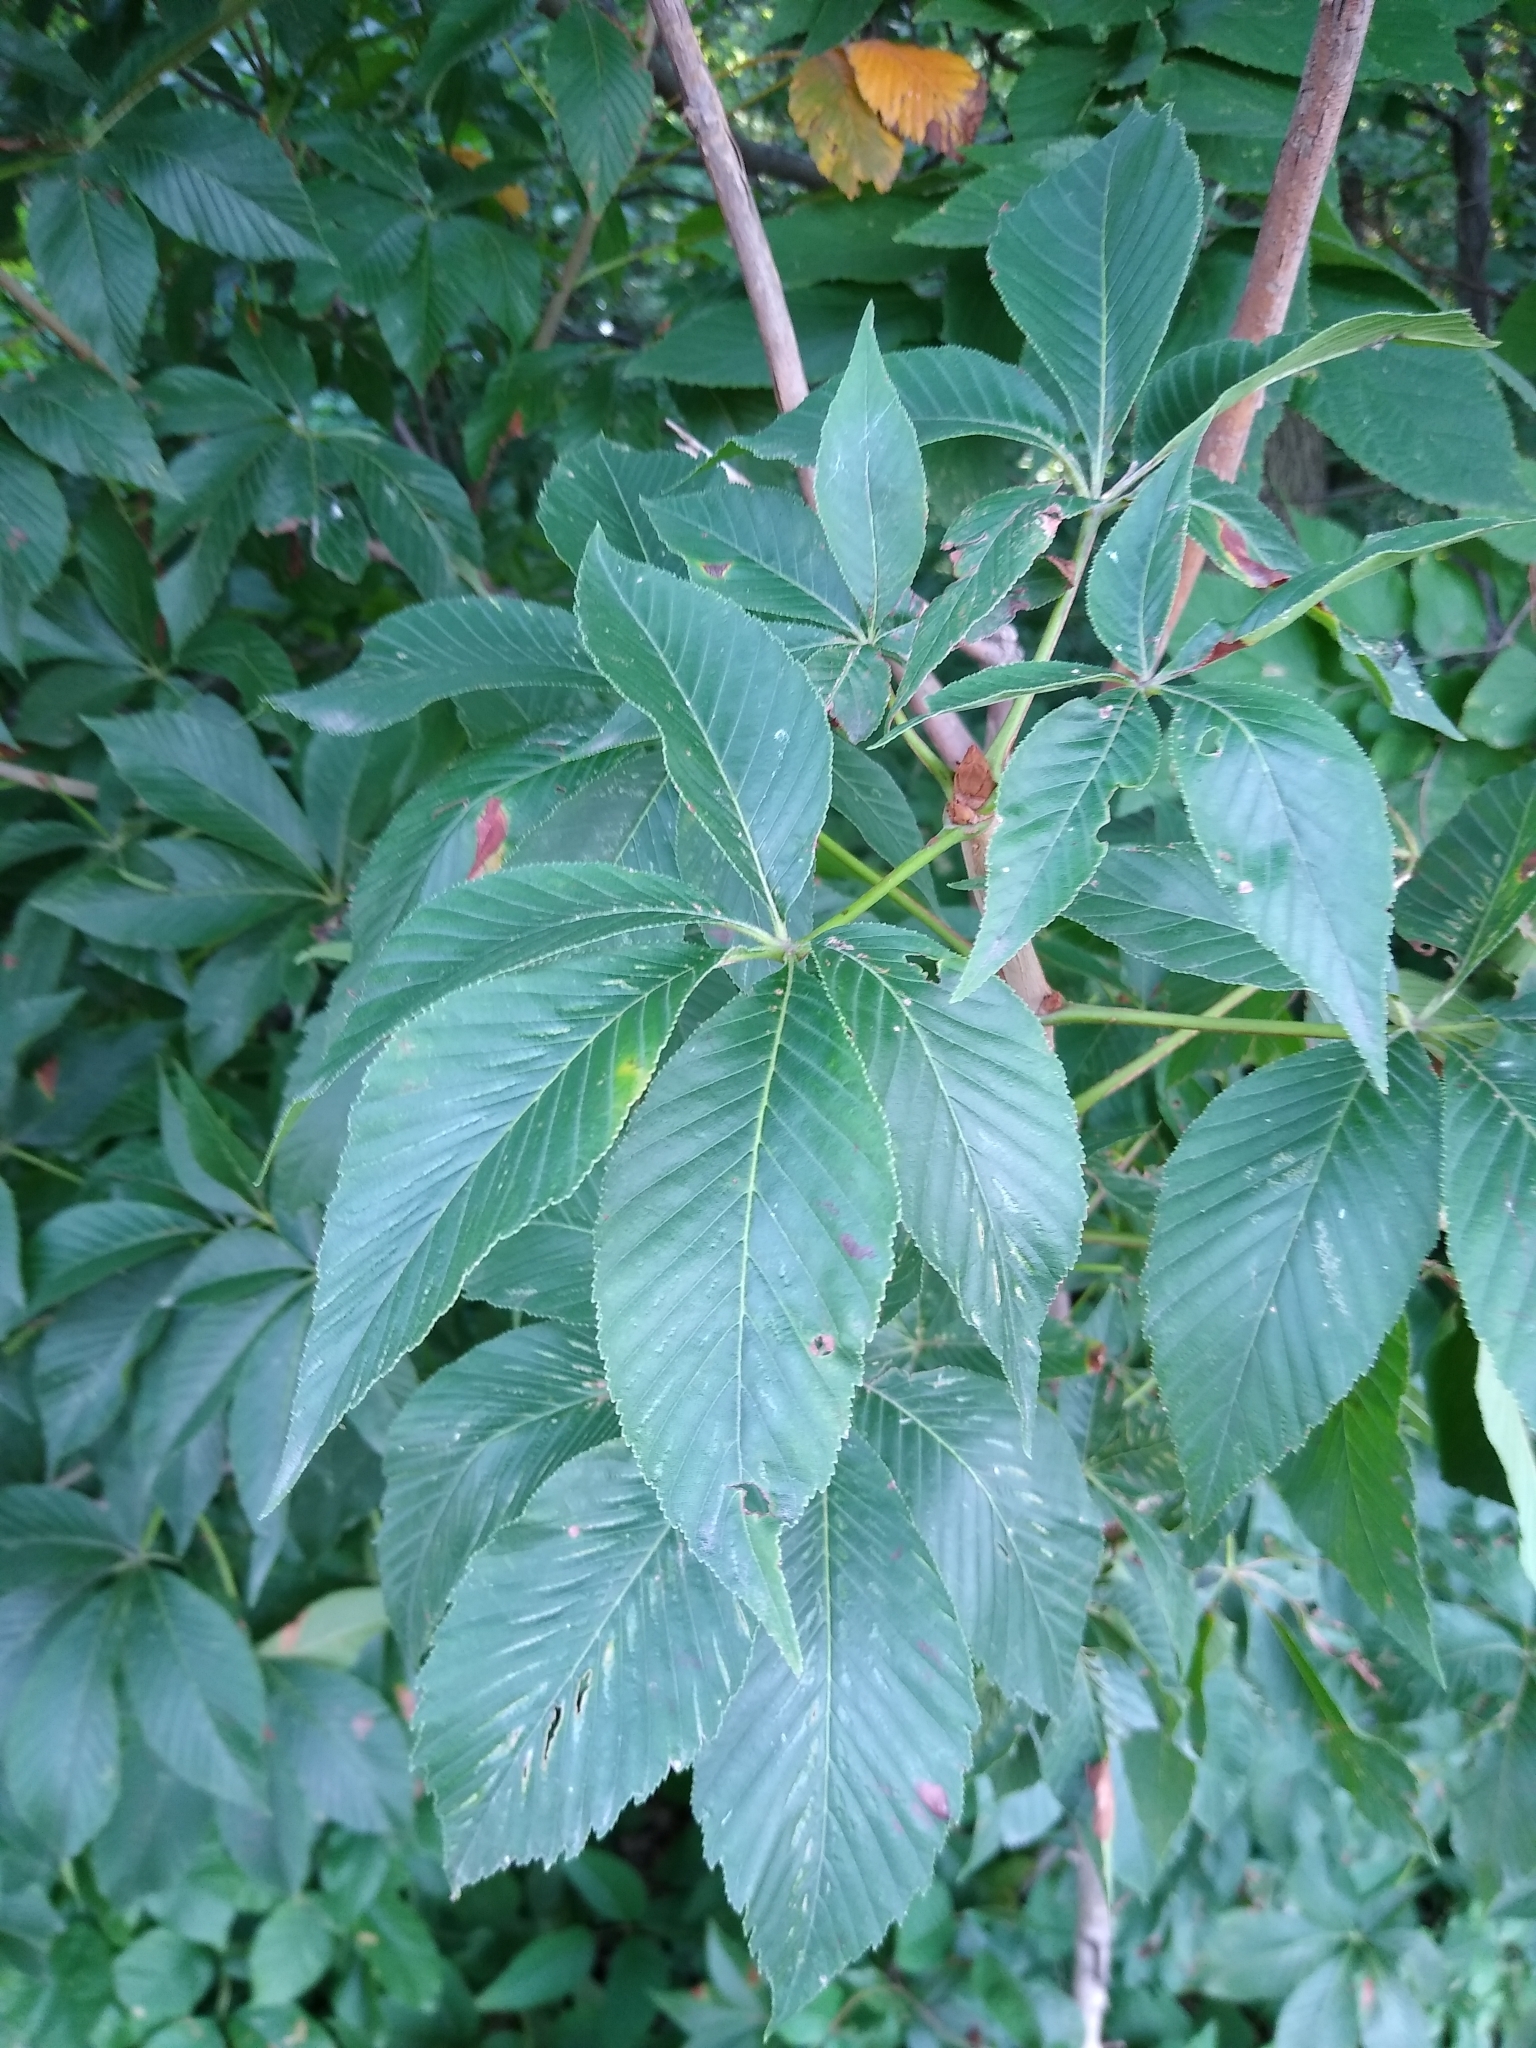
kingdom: Plantae
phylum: Tracheophyta
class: Magnoliopsida
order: Sapindales
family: Sapindaceae
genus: Aesculus
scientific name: Aesculus glabra
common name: Ohio buckeye
